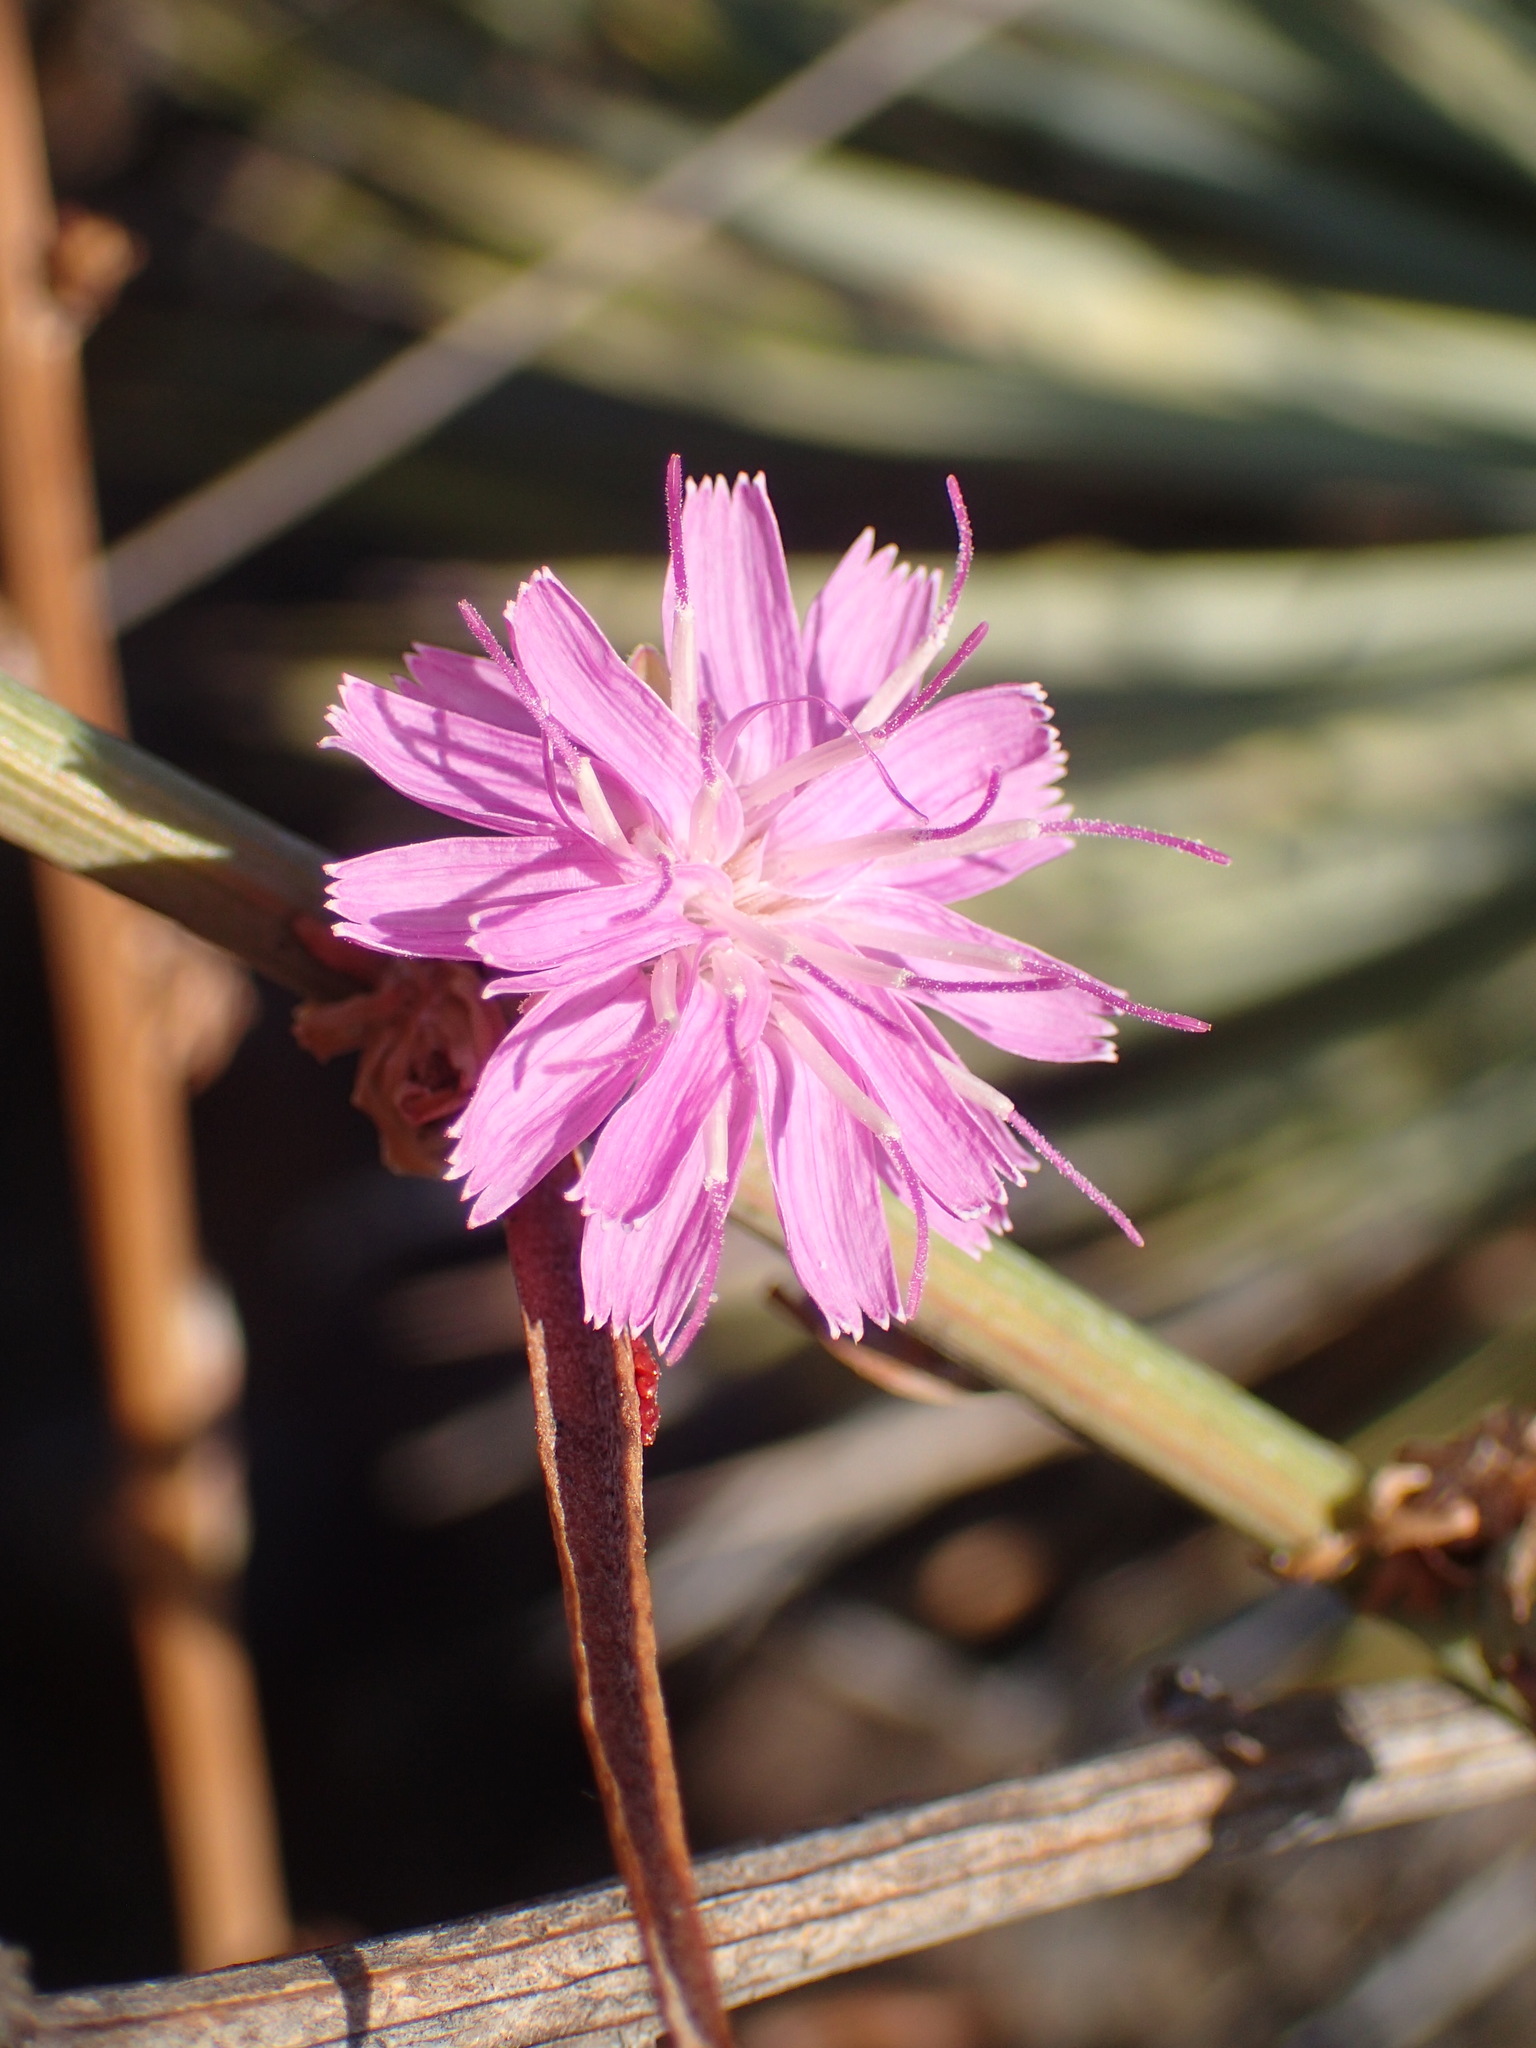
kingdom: Plantae
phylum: Tracheophyta
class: Magnoliopsida
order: Asterales
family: Asteraceae
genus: Stephanomeria
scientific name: Stephanomeria cichoriacea
